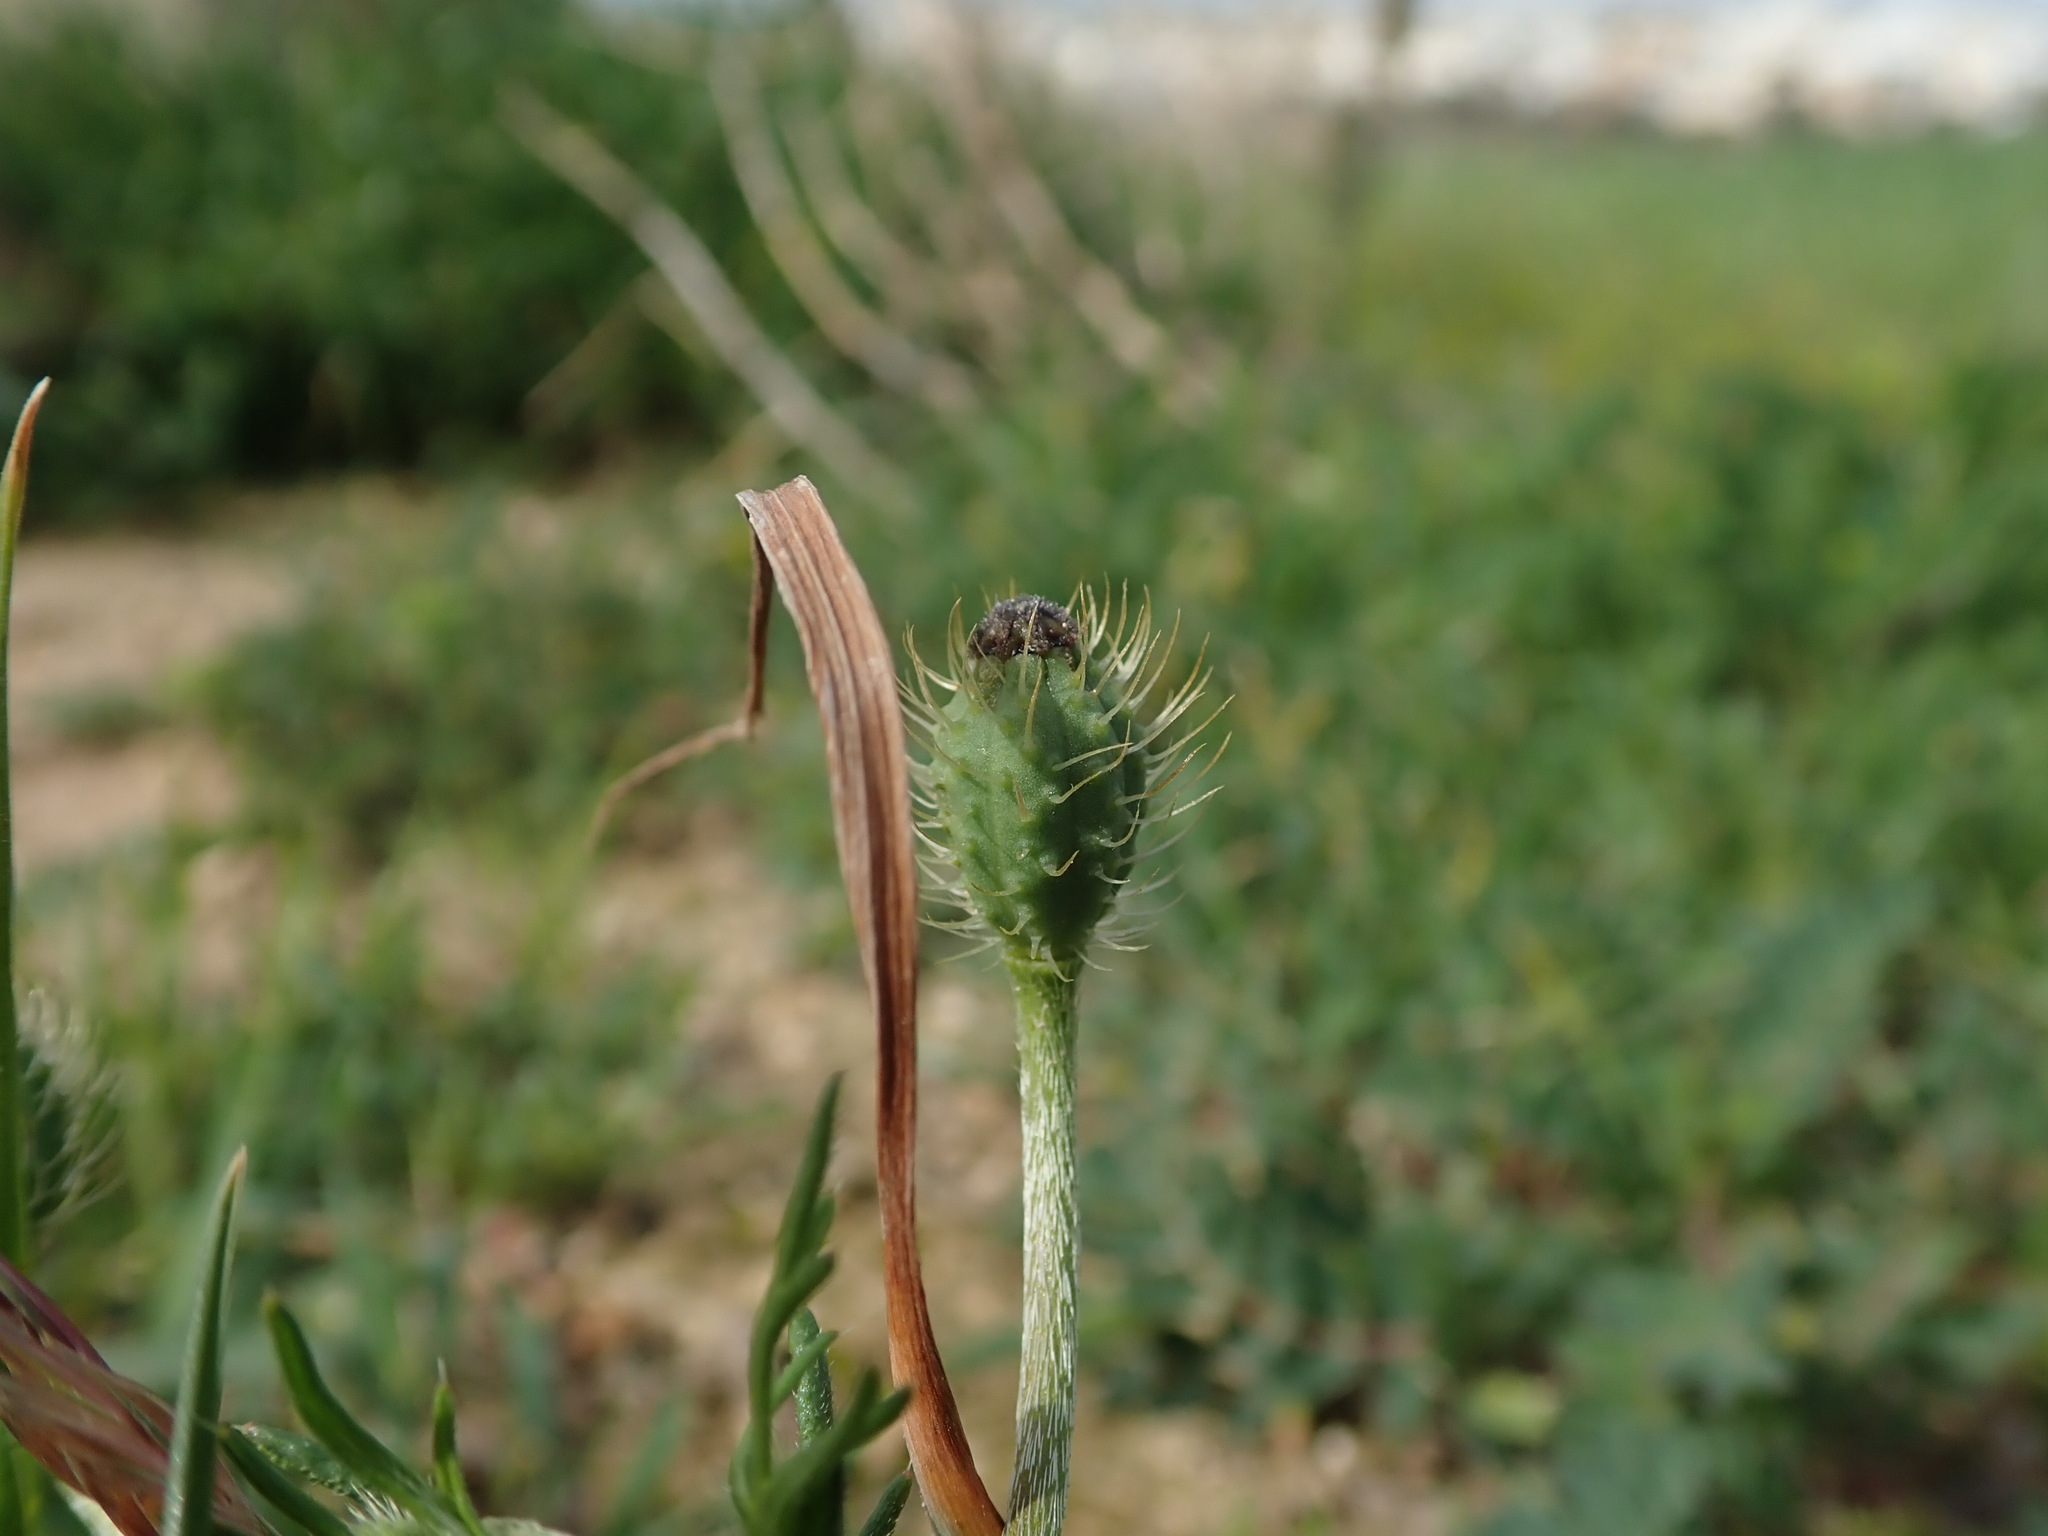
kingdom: Plantae
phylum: Tracheophyta
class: Magnoliopsida
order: Ranunculales
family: Papaveraceae
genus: Roemeria
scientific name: Roemeria hispida
